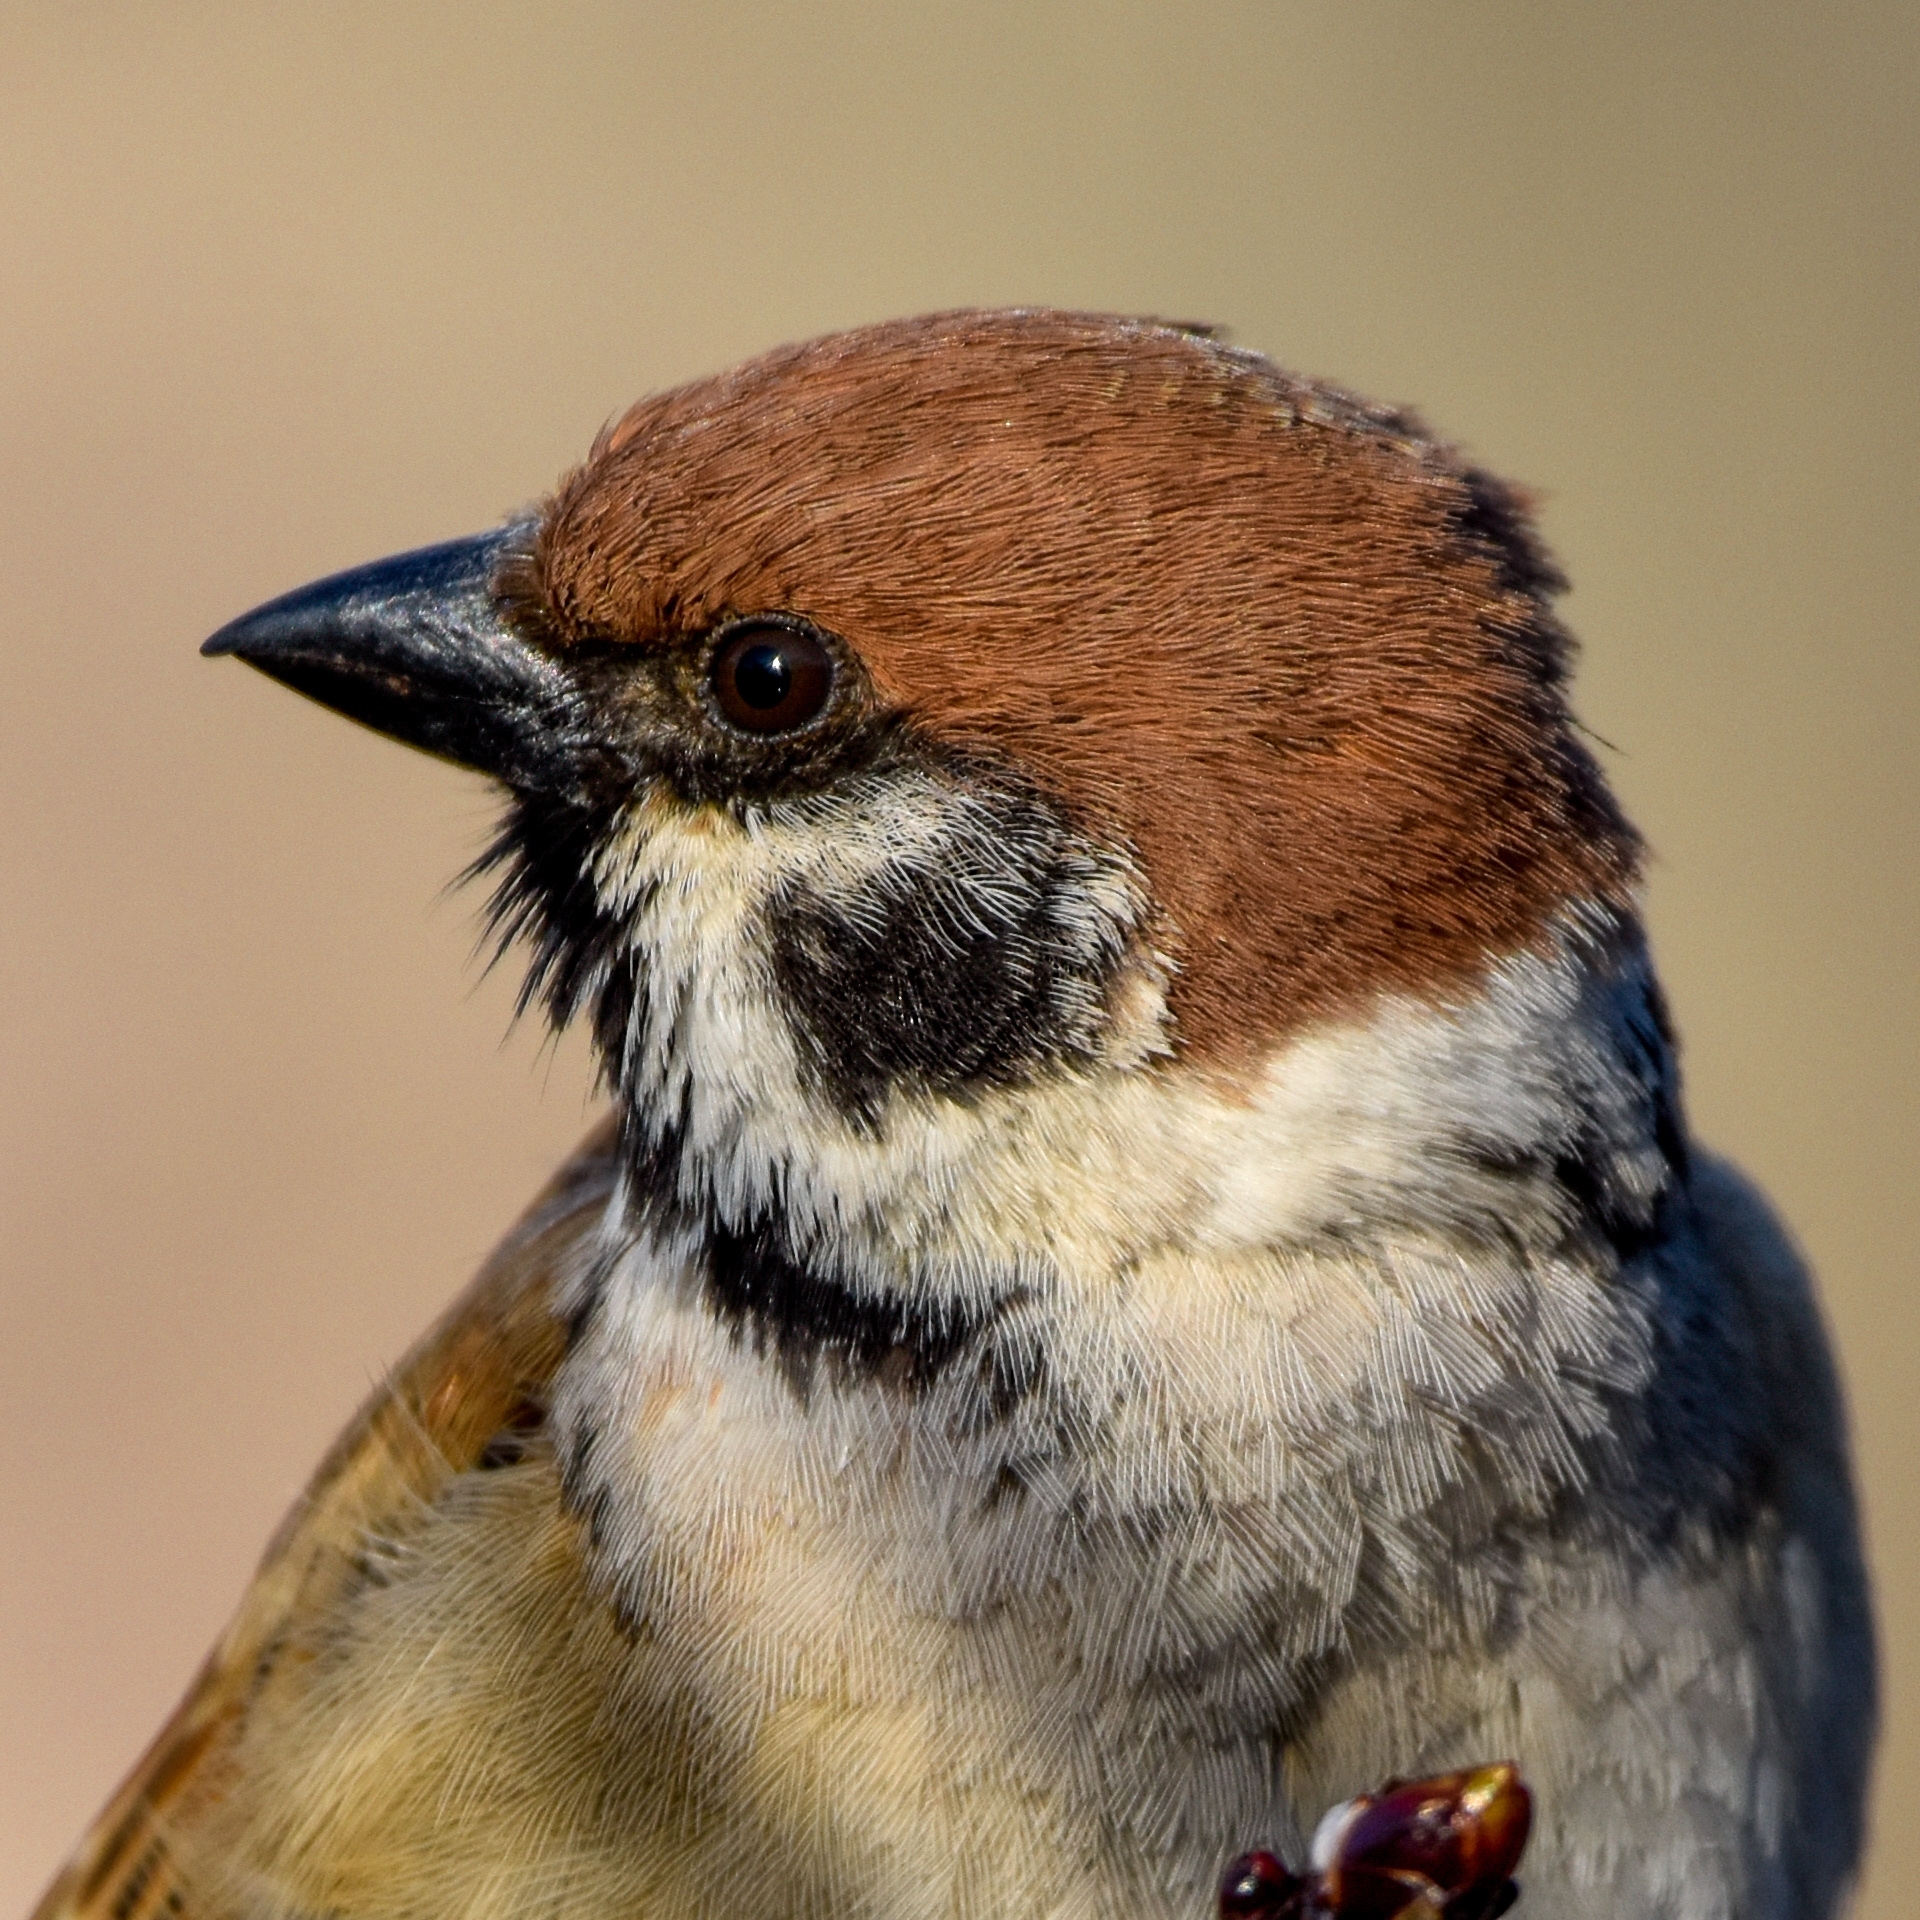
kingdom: Animalia
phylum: Chordata
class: Aves
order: Passeriformes
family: Passeridae
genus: Passer
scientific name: Passer montanus
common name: Eurasian tree sparrow
